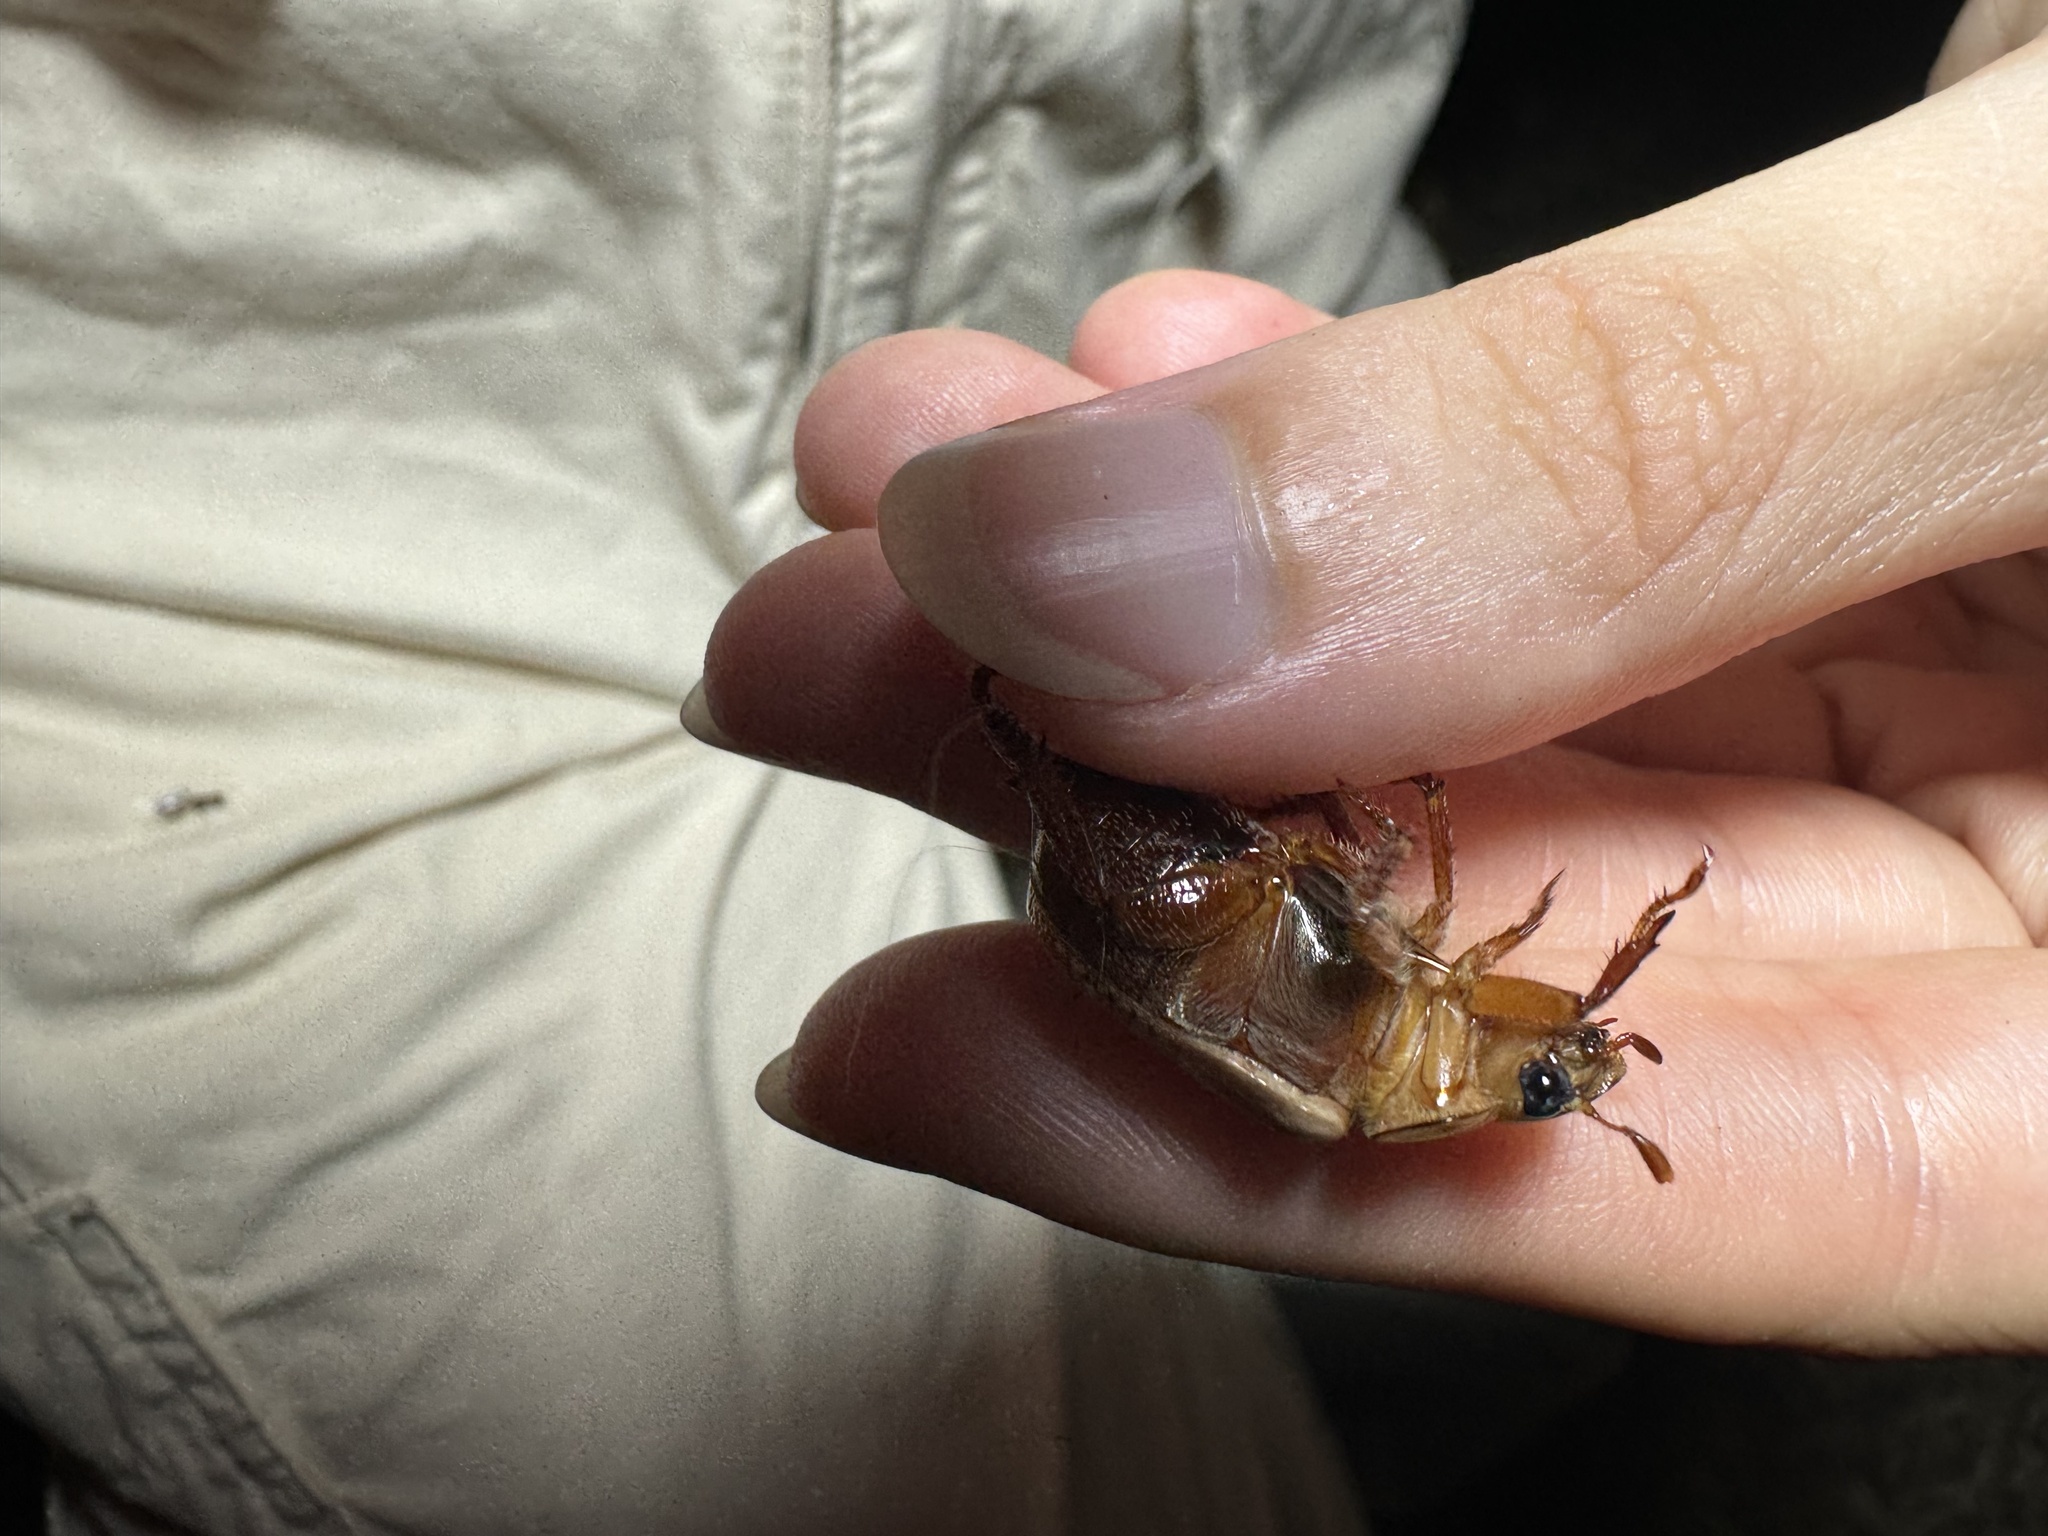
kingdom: Animalia
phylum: Arthropoda
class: Insecta
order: Coleoptera
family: Scarabaeidae
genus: Anoplognathus
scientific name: Anoplognathus concolor
